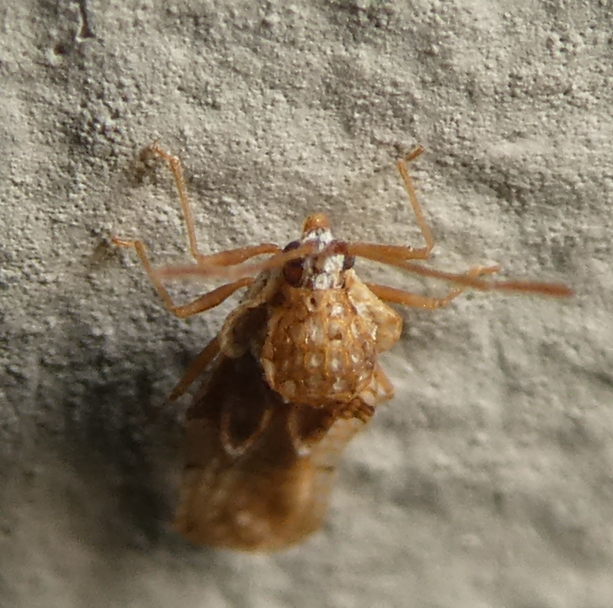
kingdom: Animalia
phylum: Arthropoda
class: Insecta
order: Hemiptera
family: Tingidae
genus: Corythauma
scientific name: Corythauma ayyari
